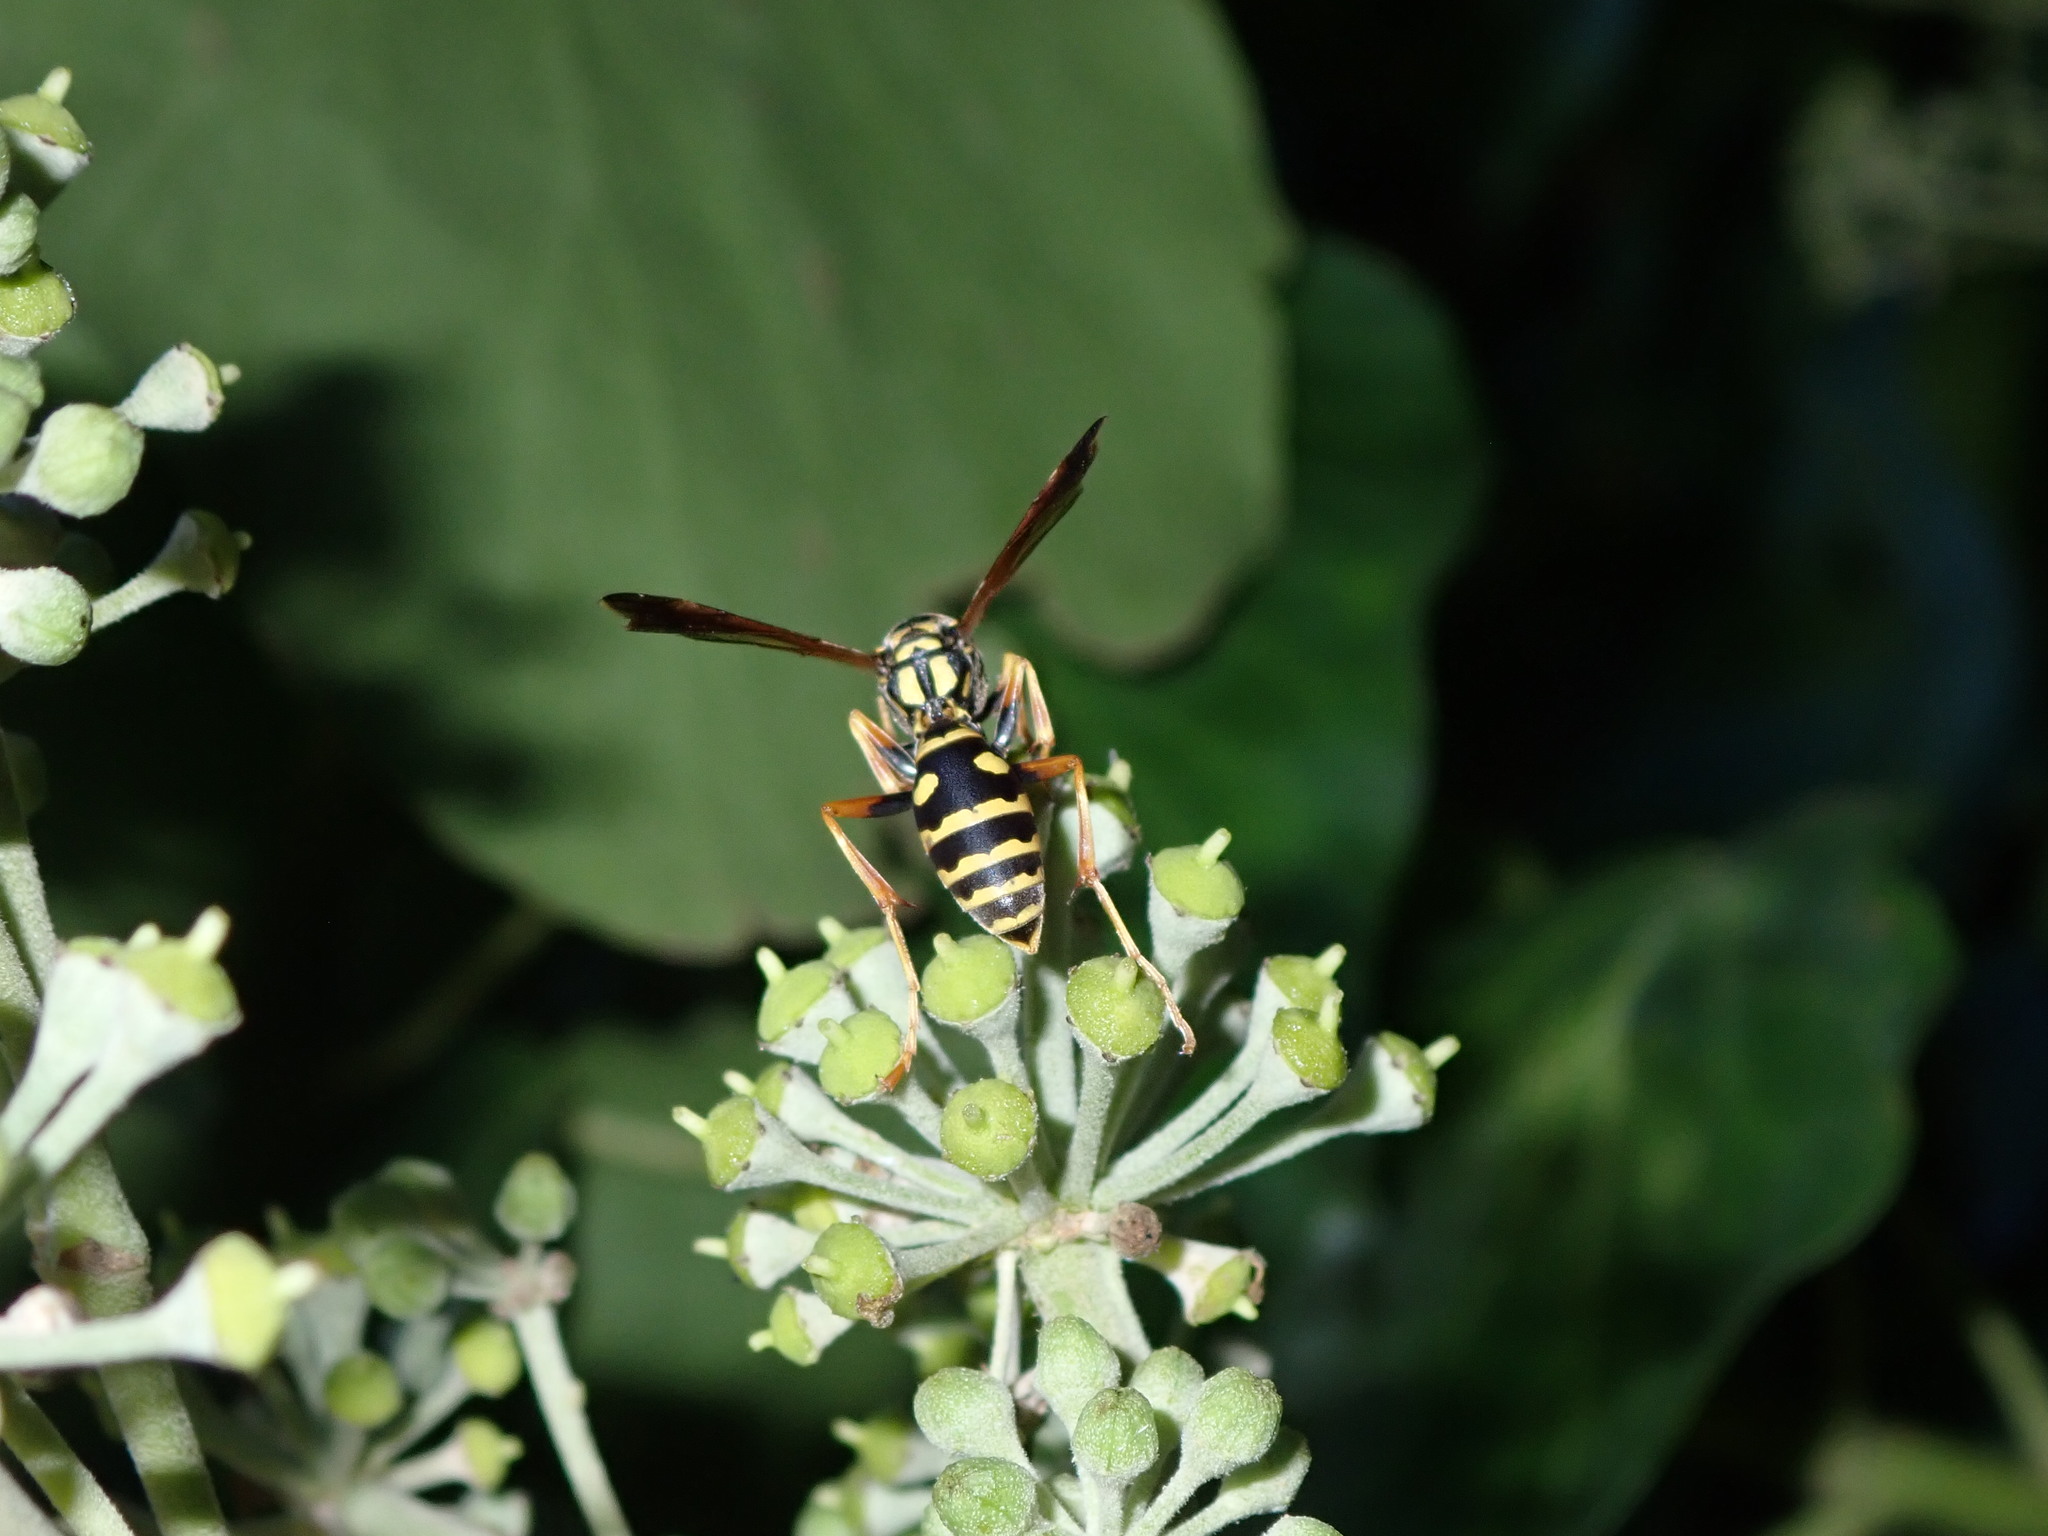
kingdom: Animalia
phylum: Arthropoda
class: Insecta
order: Hymenoptera
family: Eumenidae
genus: Polistes
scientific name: Polistes chinensis
